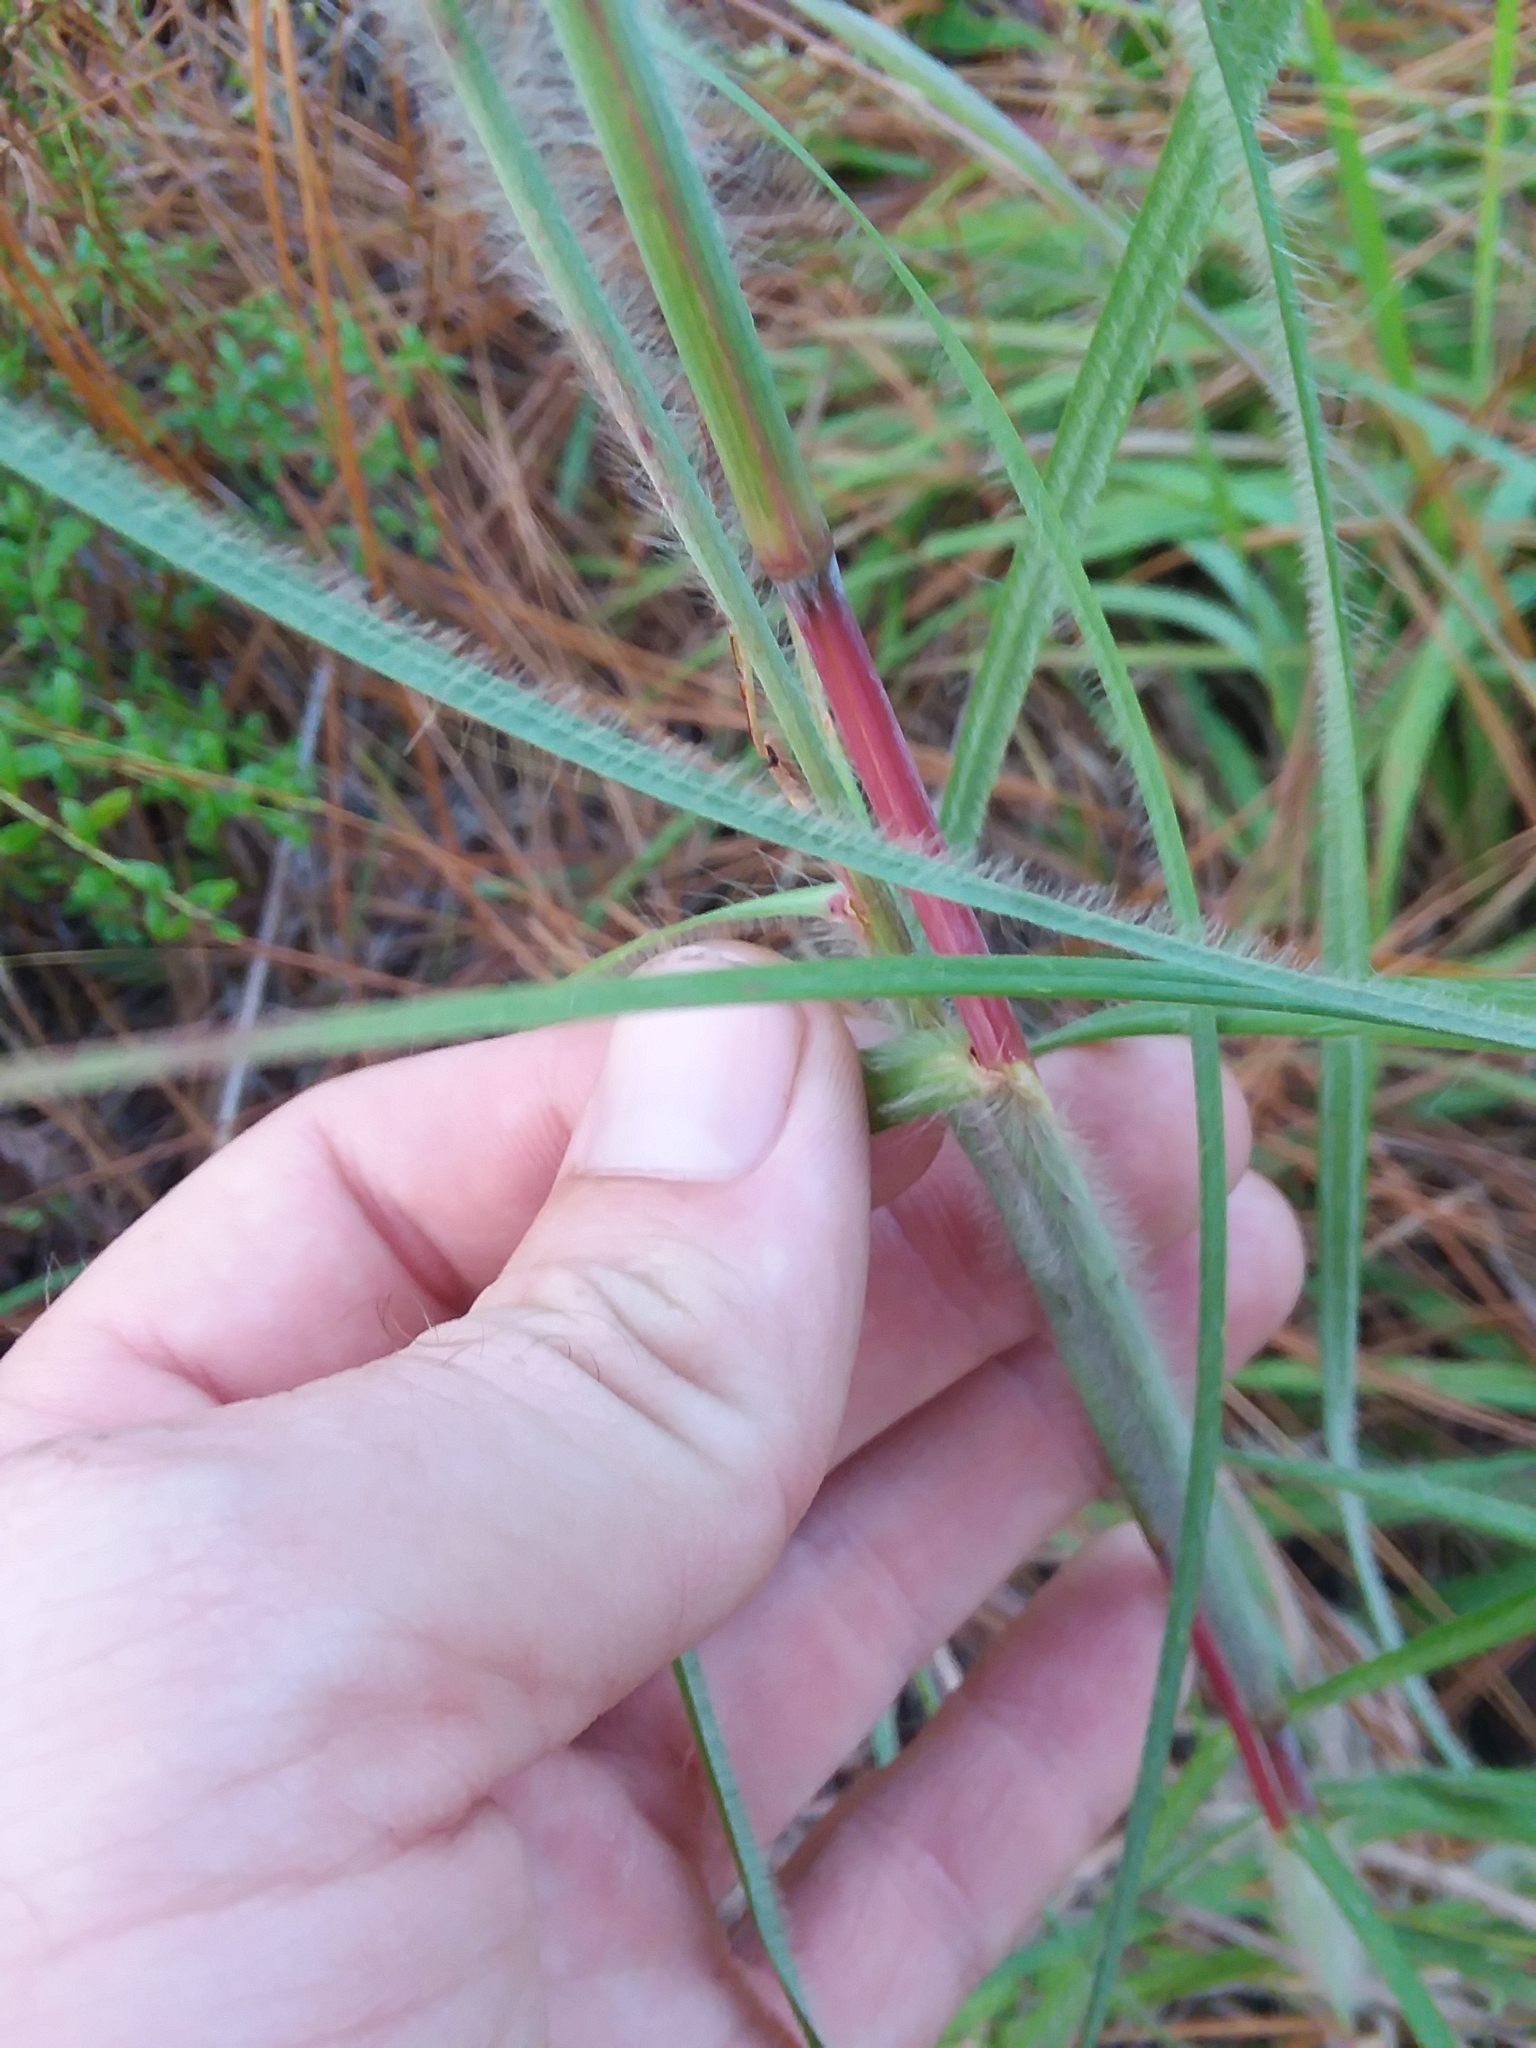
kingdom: Plantae
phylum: Tracheophyta
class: Liliopsida
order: Poales
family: Poaceae
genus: Andropogon
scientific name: Andropogon ternarius
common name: Split bluestem
